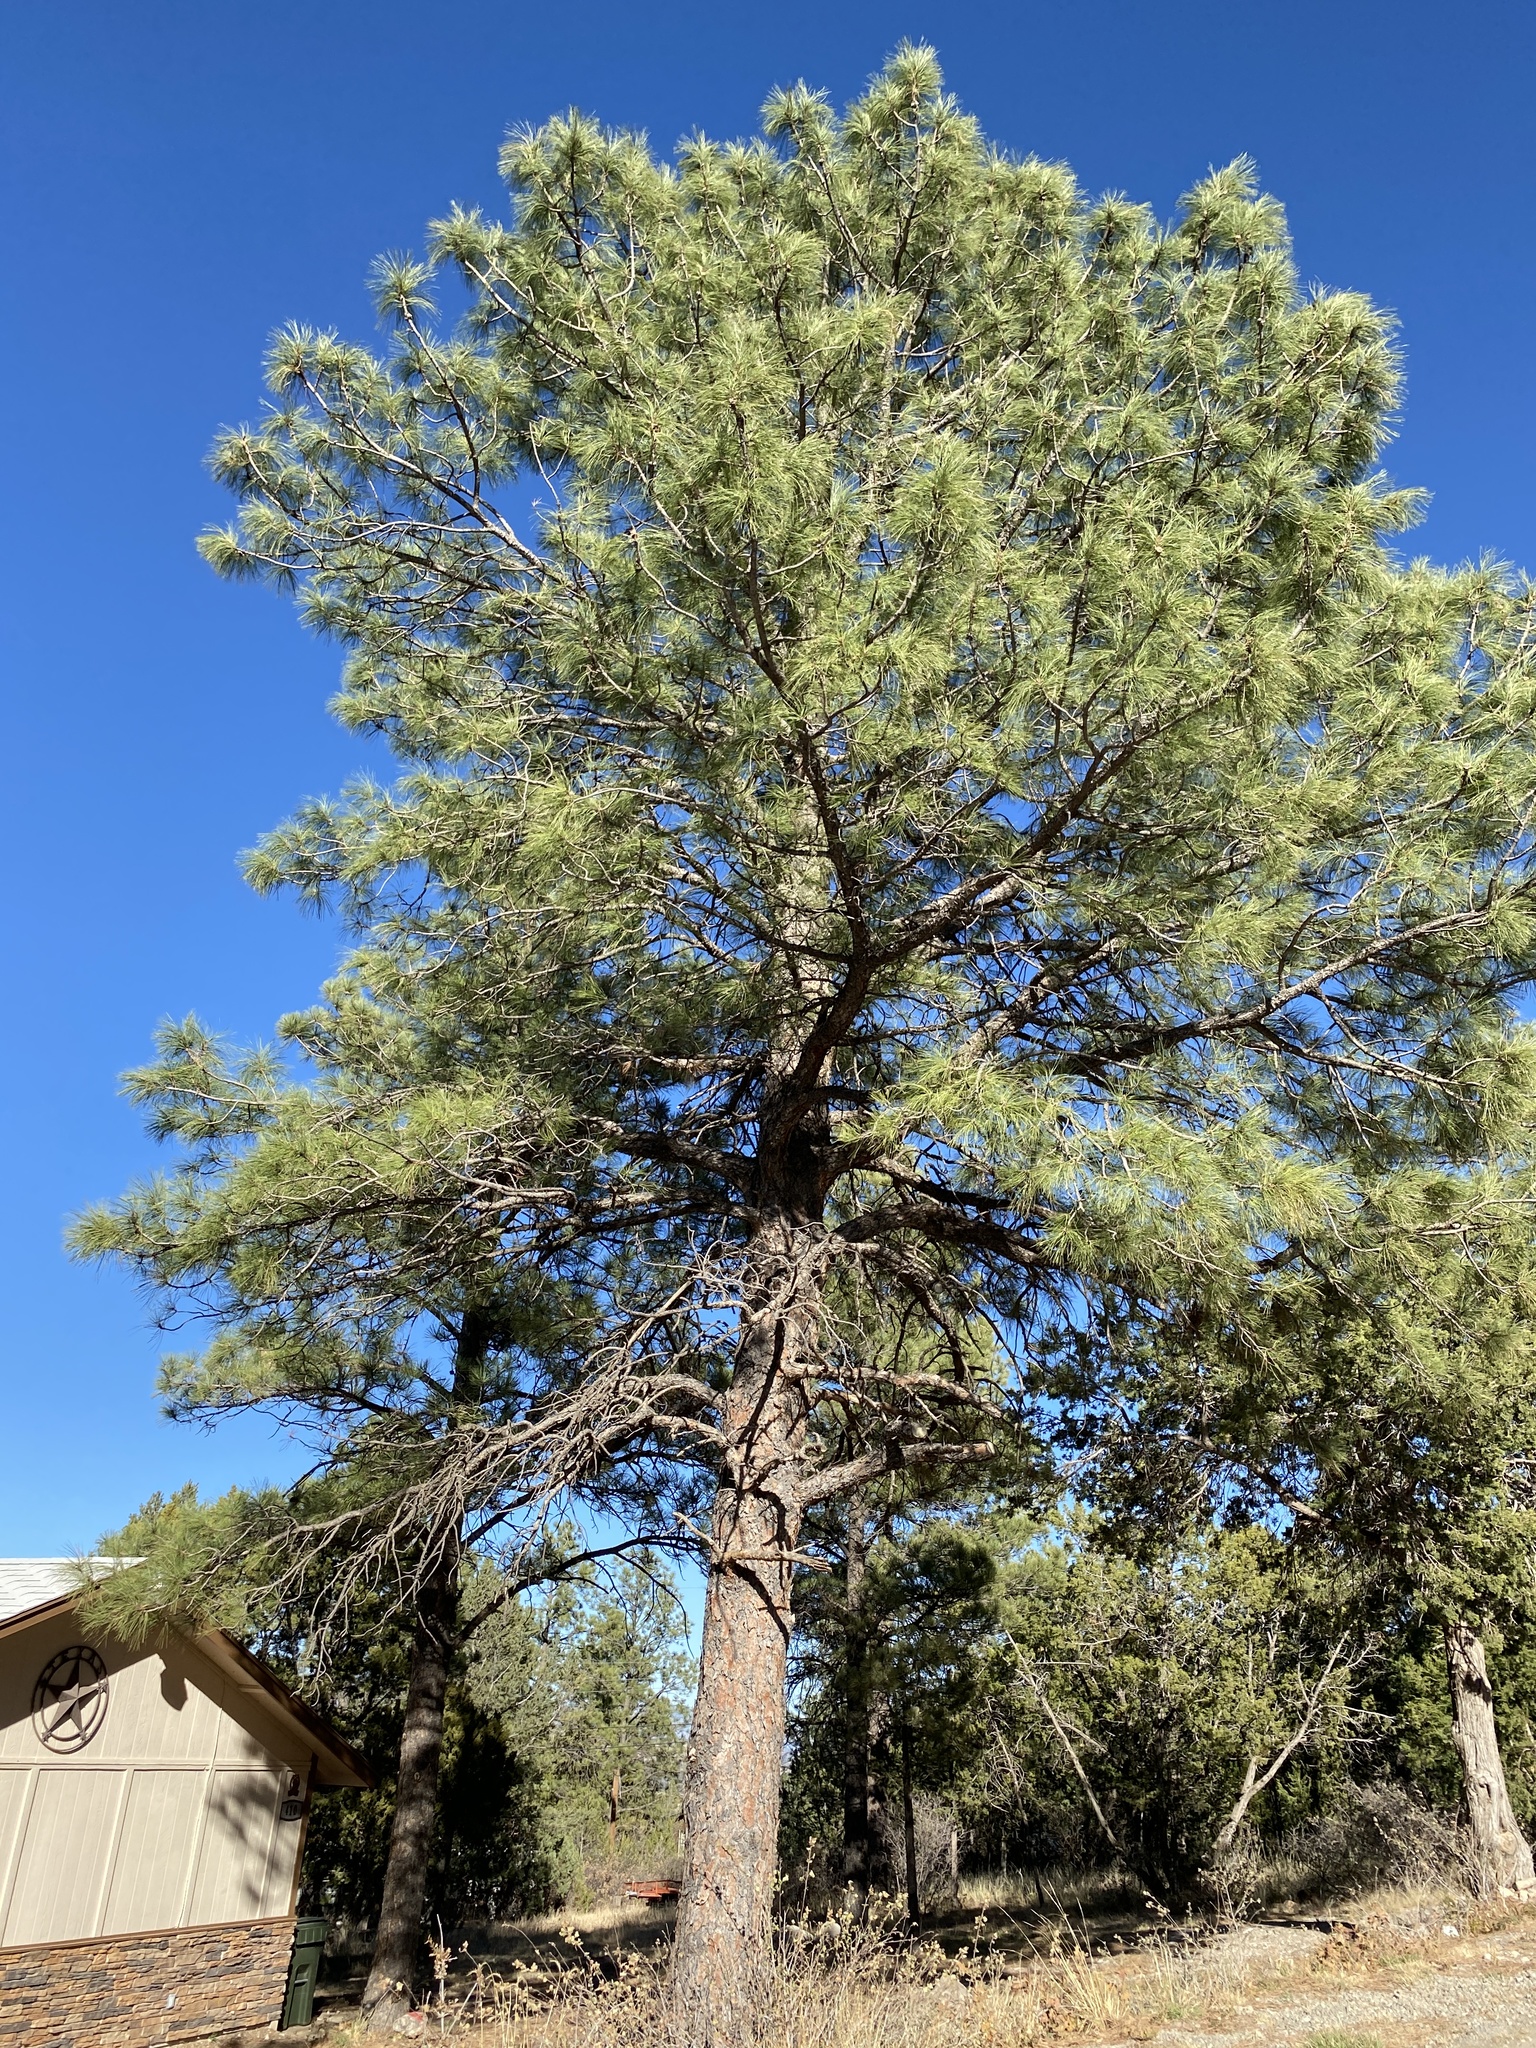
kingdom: Plantae
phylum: Tracheophyta
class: Pinopsida
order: Pinales
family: Pinaceae
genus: Pinus
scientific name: Pinus ponderosa
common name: Western yellow-pine
